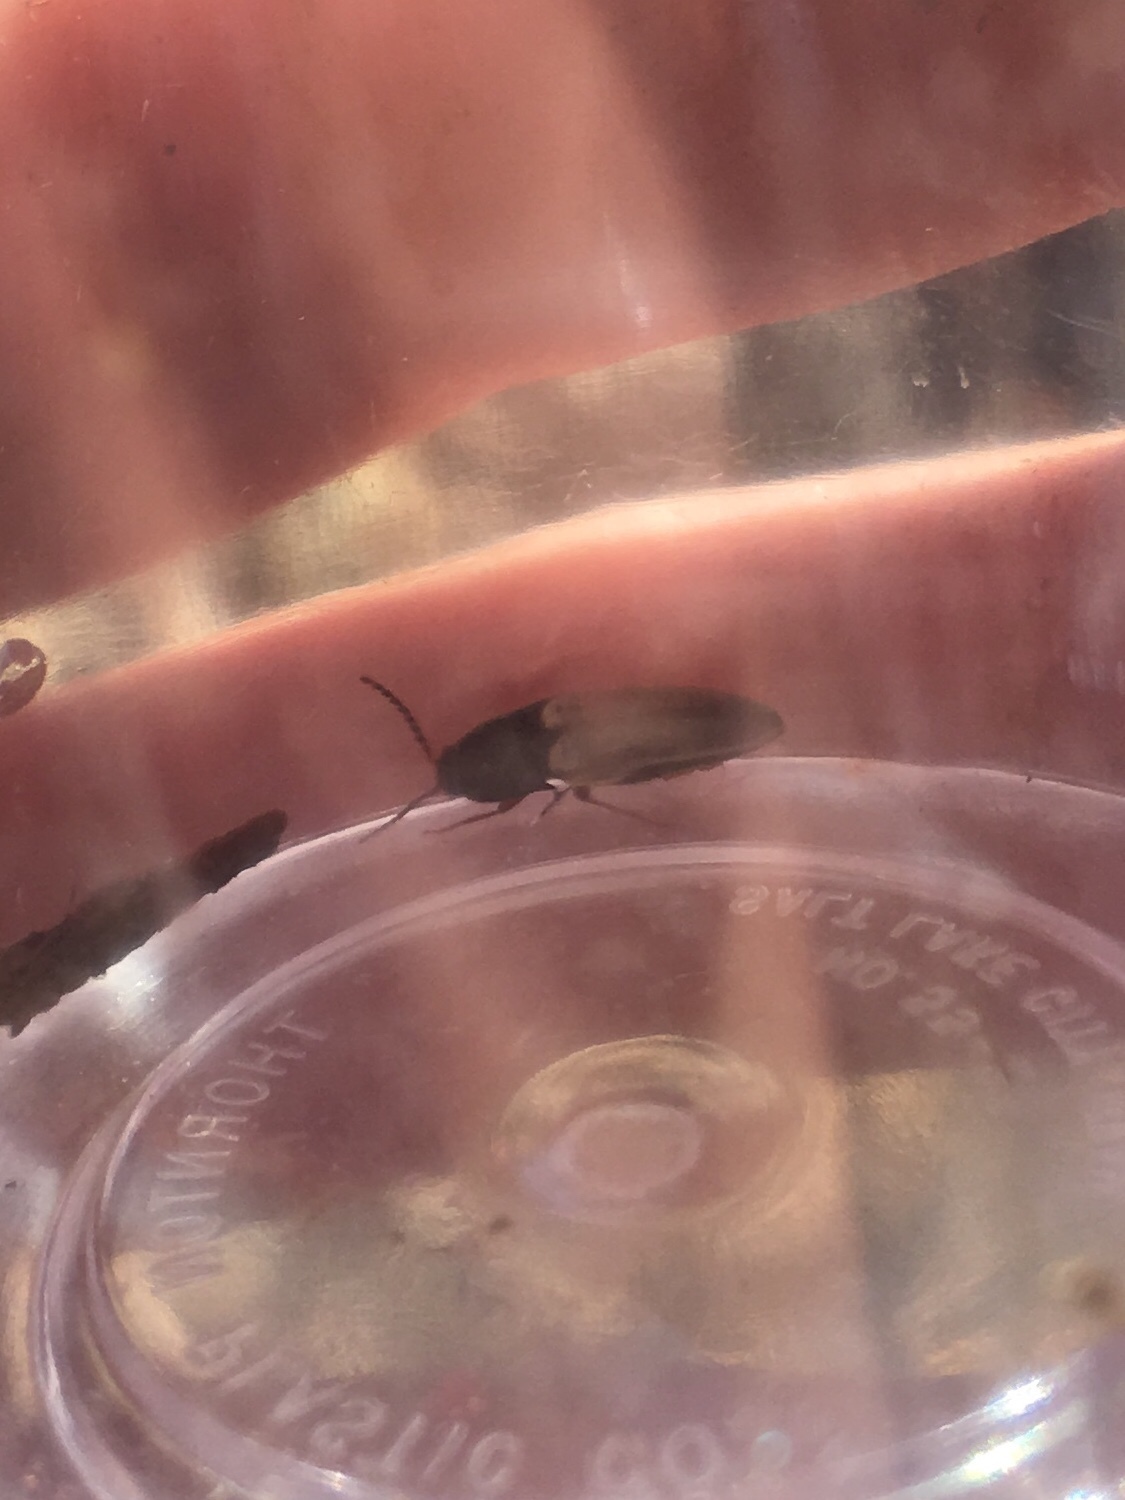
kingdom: Animalia
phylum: Arthropoda
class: Insecta
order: Coleoptera
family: Elateridae
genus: Ampedus
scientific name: Ampedus nigricollis
